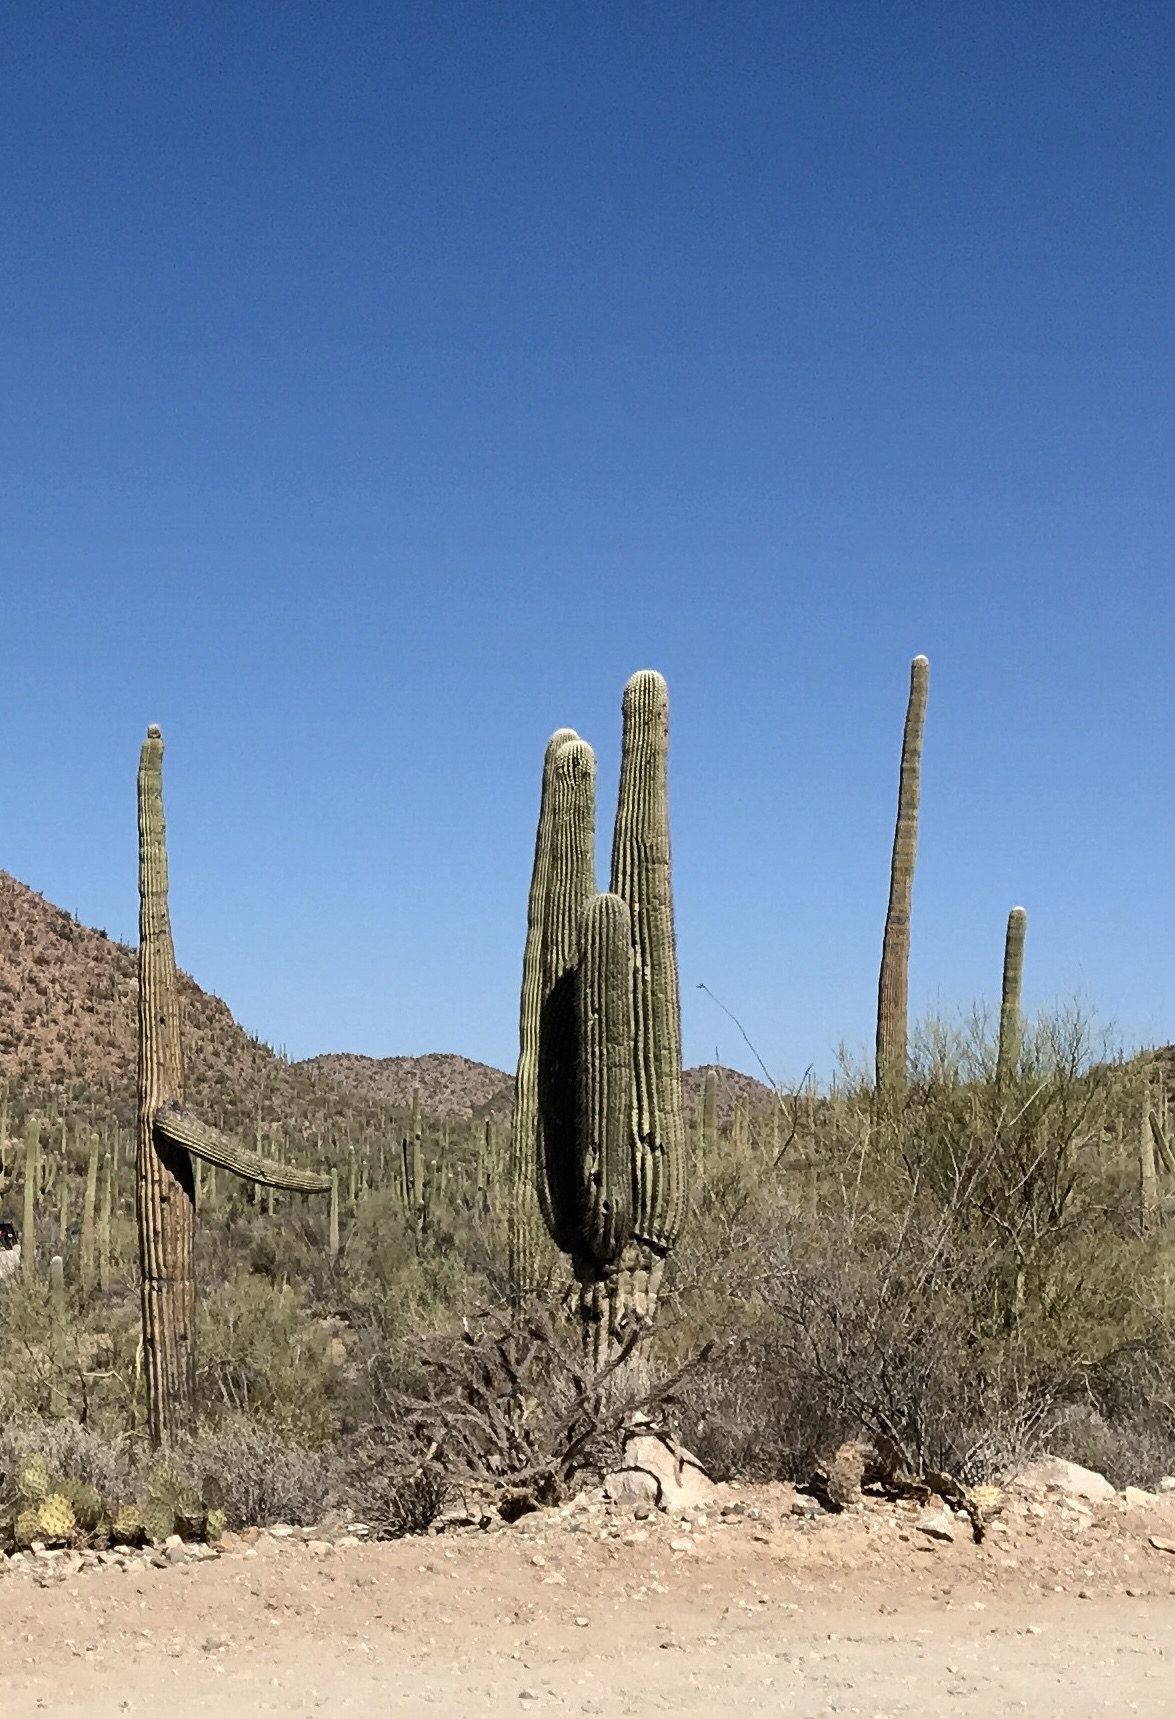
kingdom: Plantae
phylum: Tracheophyta
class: Magnoliopsida
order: Caryophyllales
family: Cactaceae
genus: Carnegiea
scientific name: Carnegiea gigantea
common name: Saguaro
